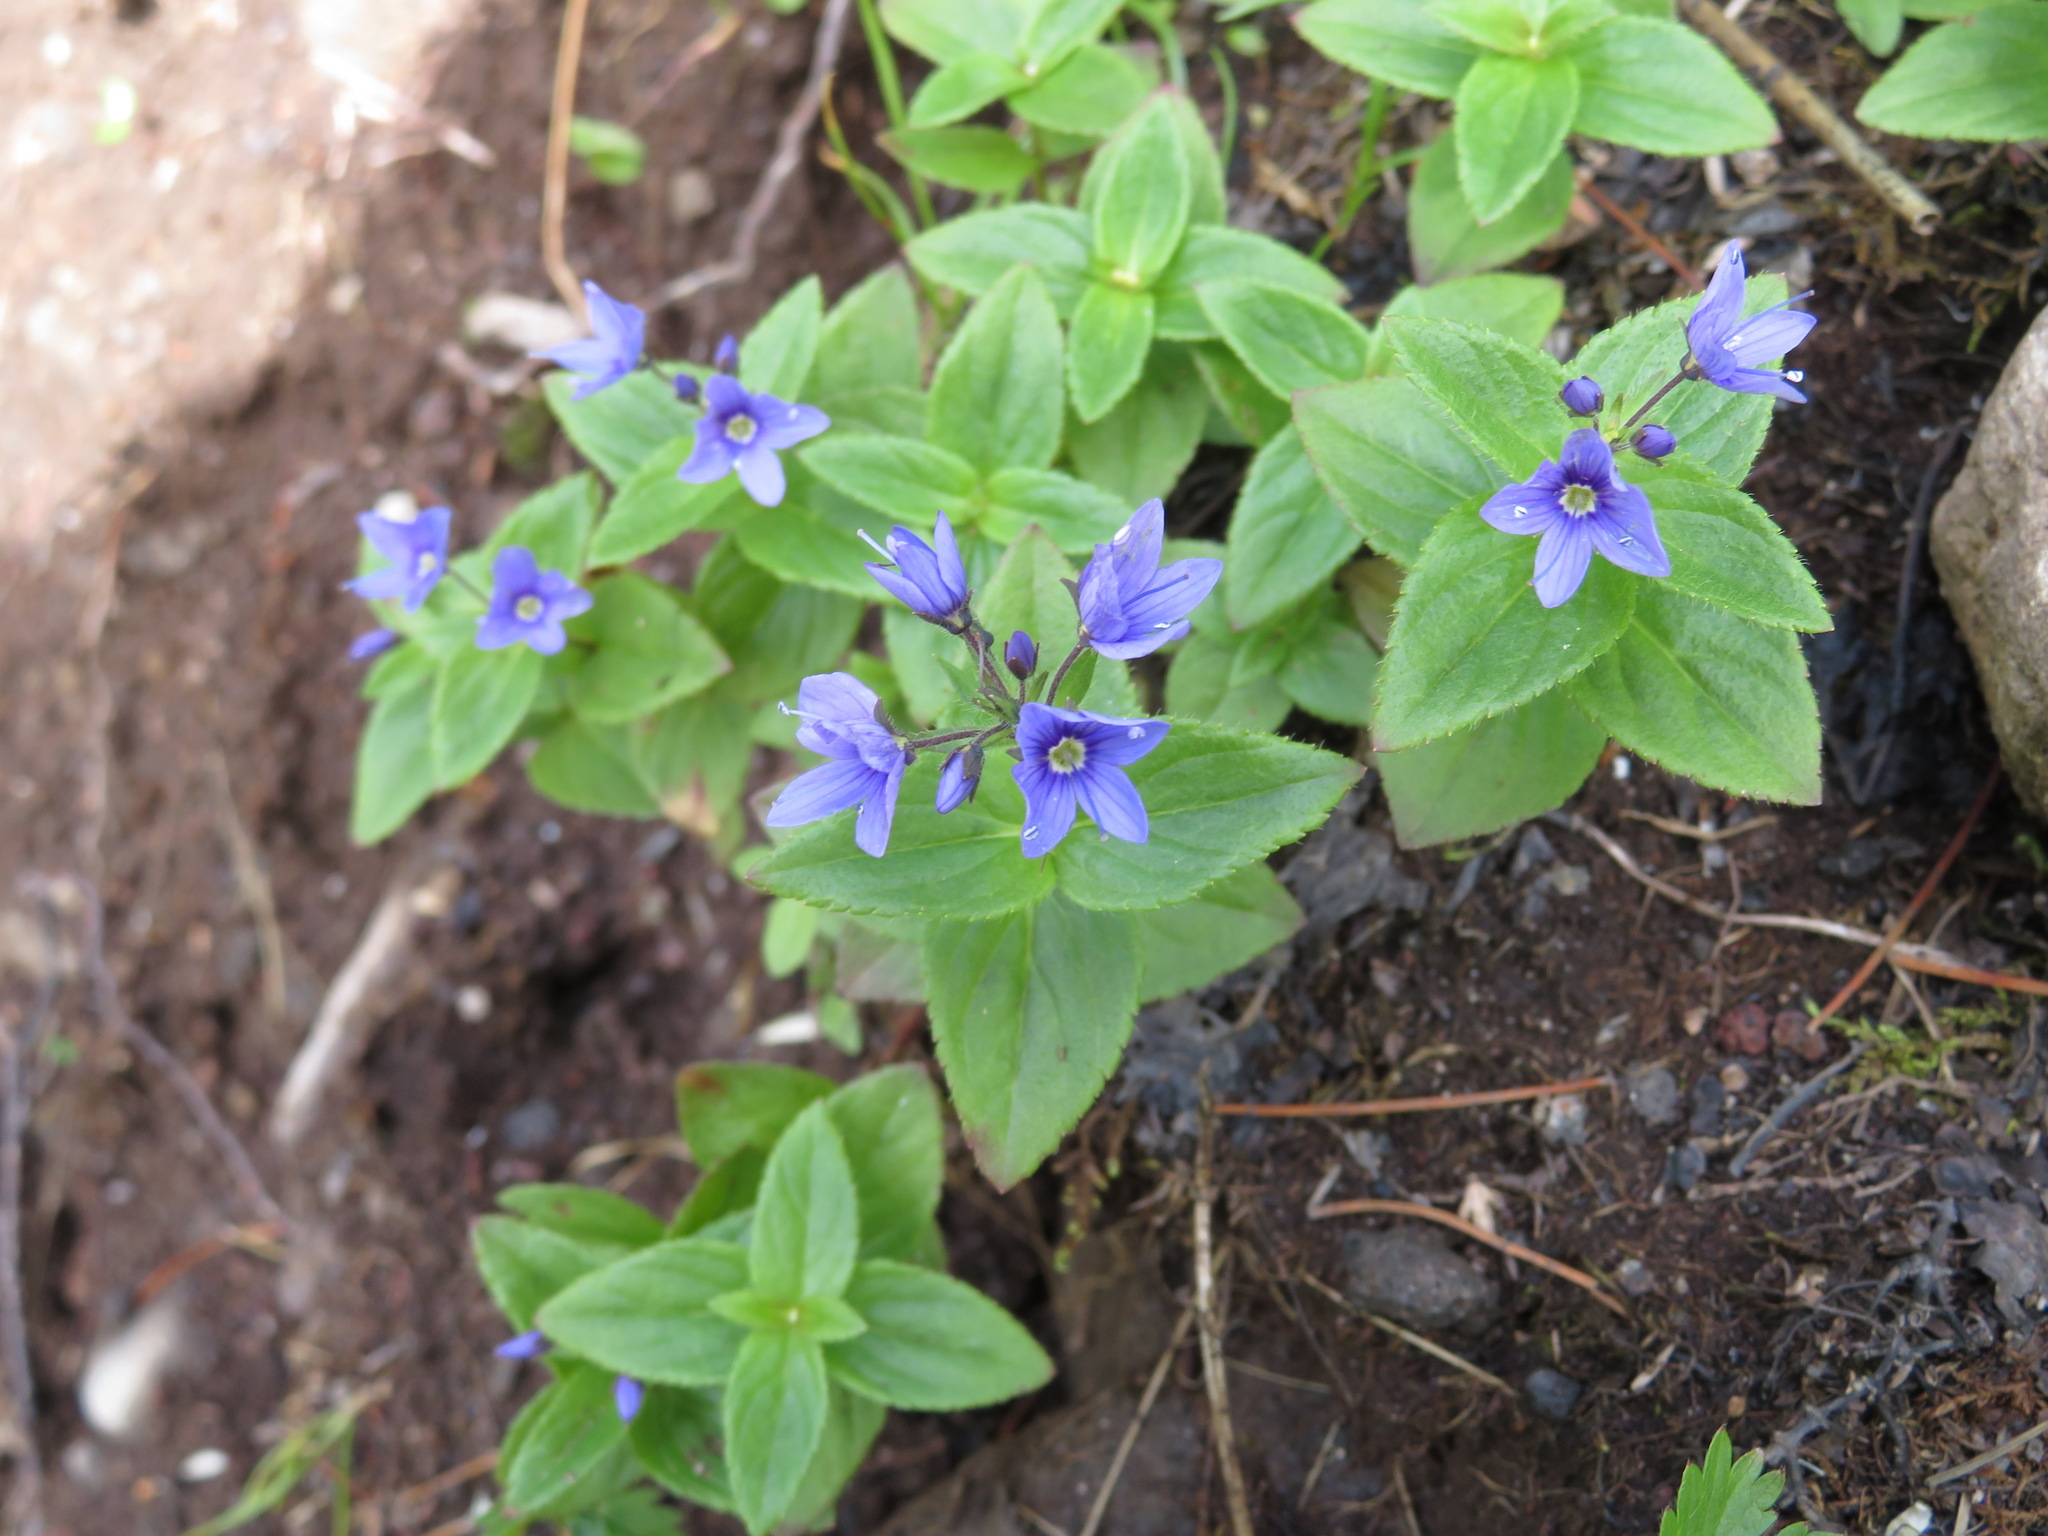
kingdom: Plantae
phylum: Tracheophyta
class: Magnoliopsida
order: Lamiales
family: Plantaginaceae
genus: Veronica
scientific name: Veronica stelleri
